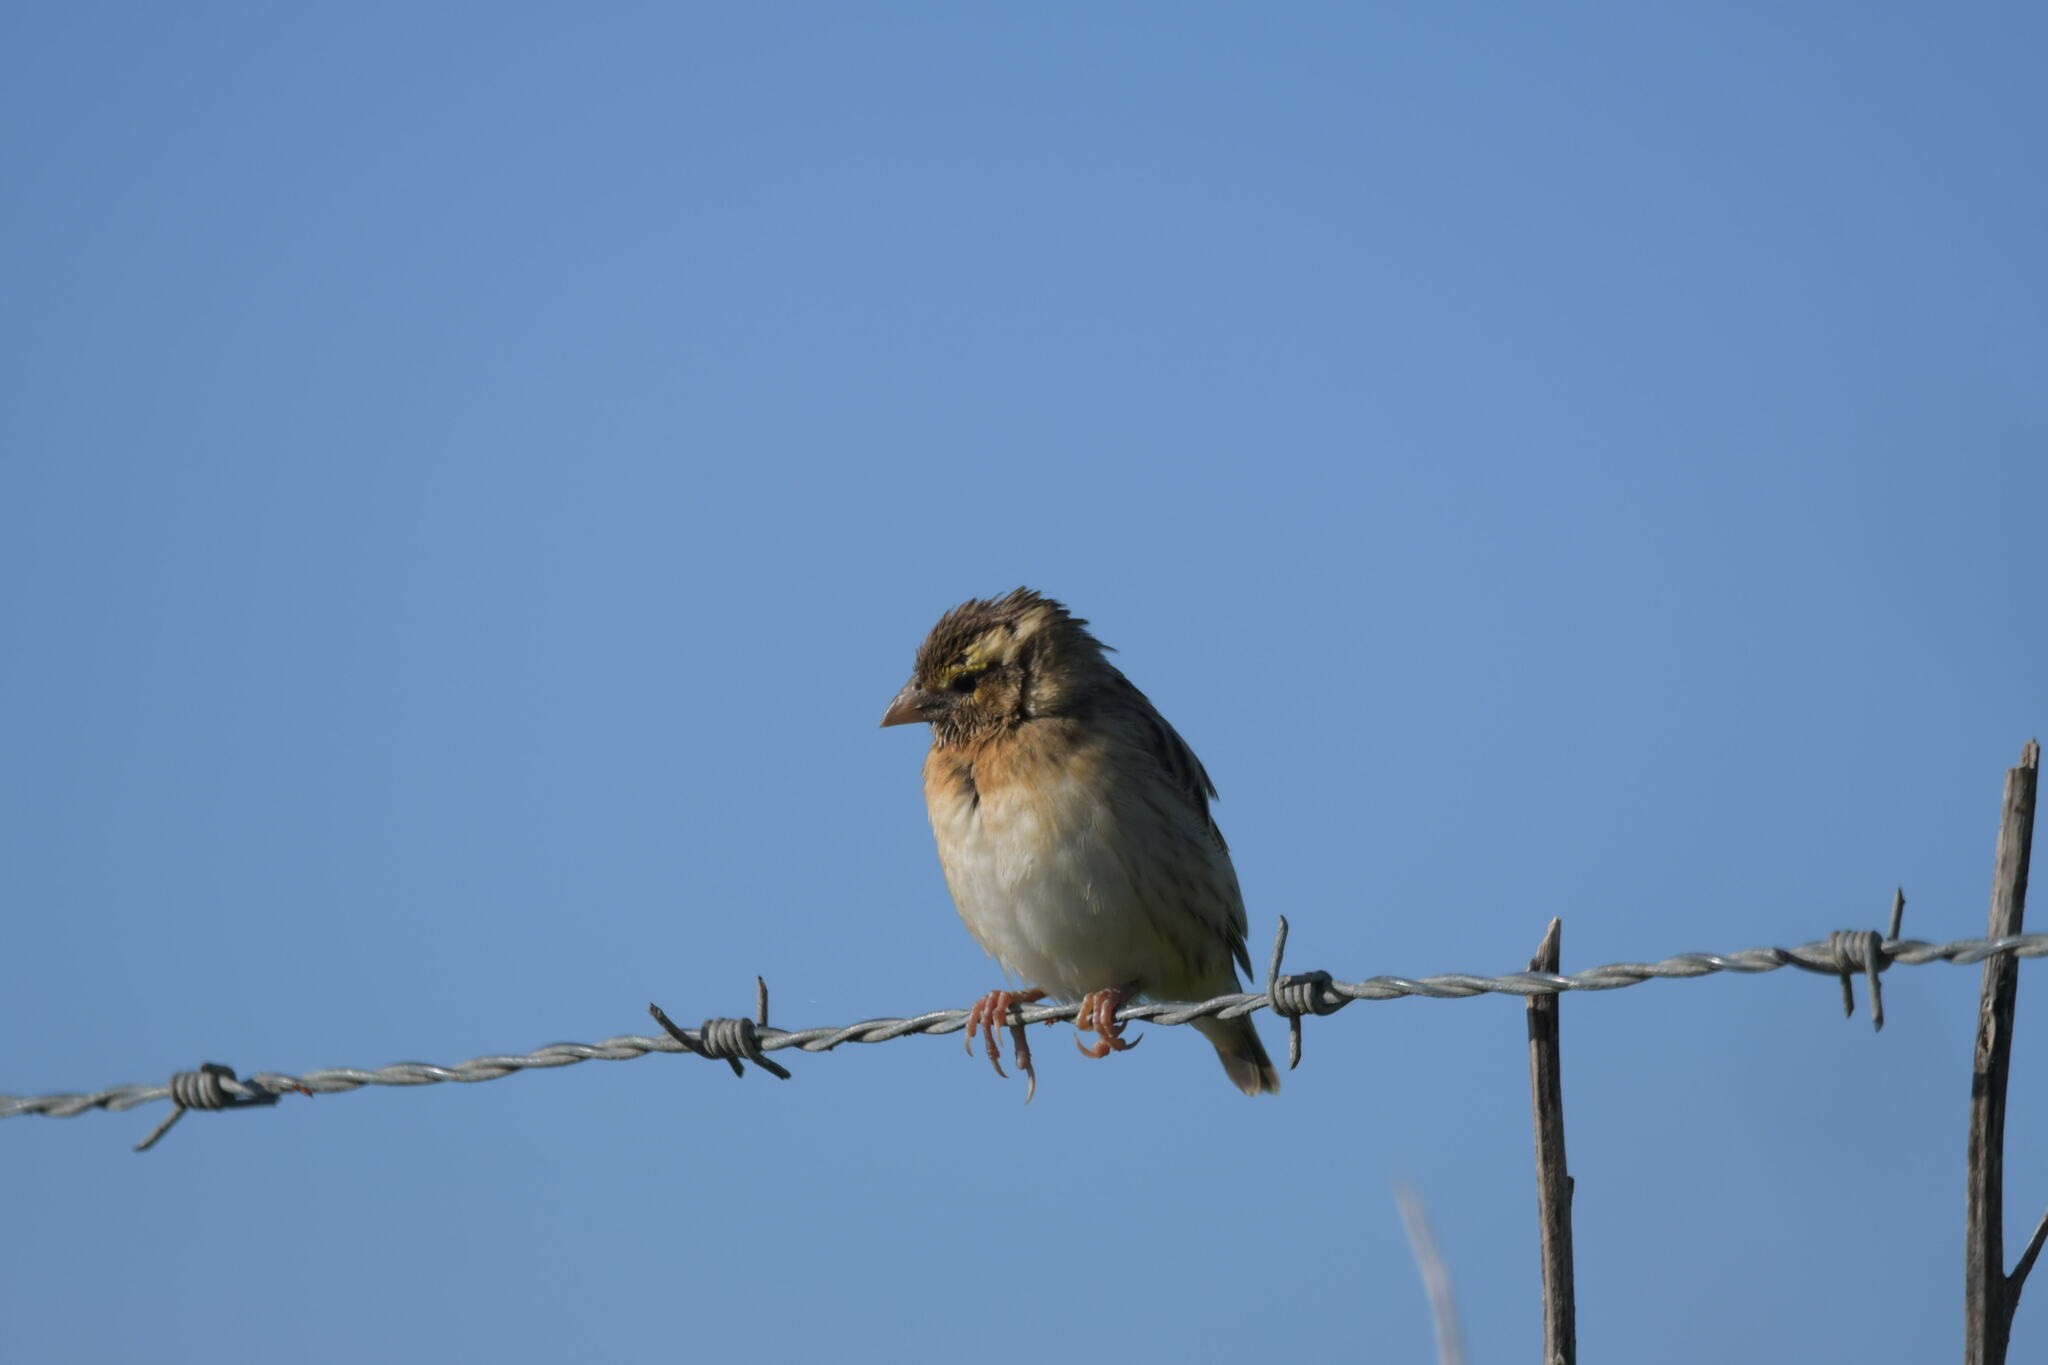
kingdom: Animalia
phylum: Chordata
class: Aves
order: Passeriformes
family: Ploceidae
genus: Euplectes
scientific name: Euplectes afer
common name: Yellow-crowned bishop
